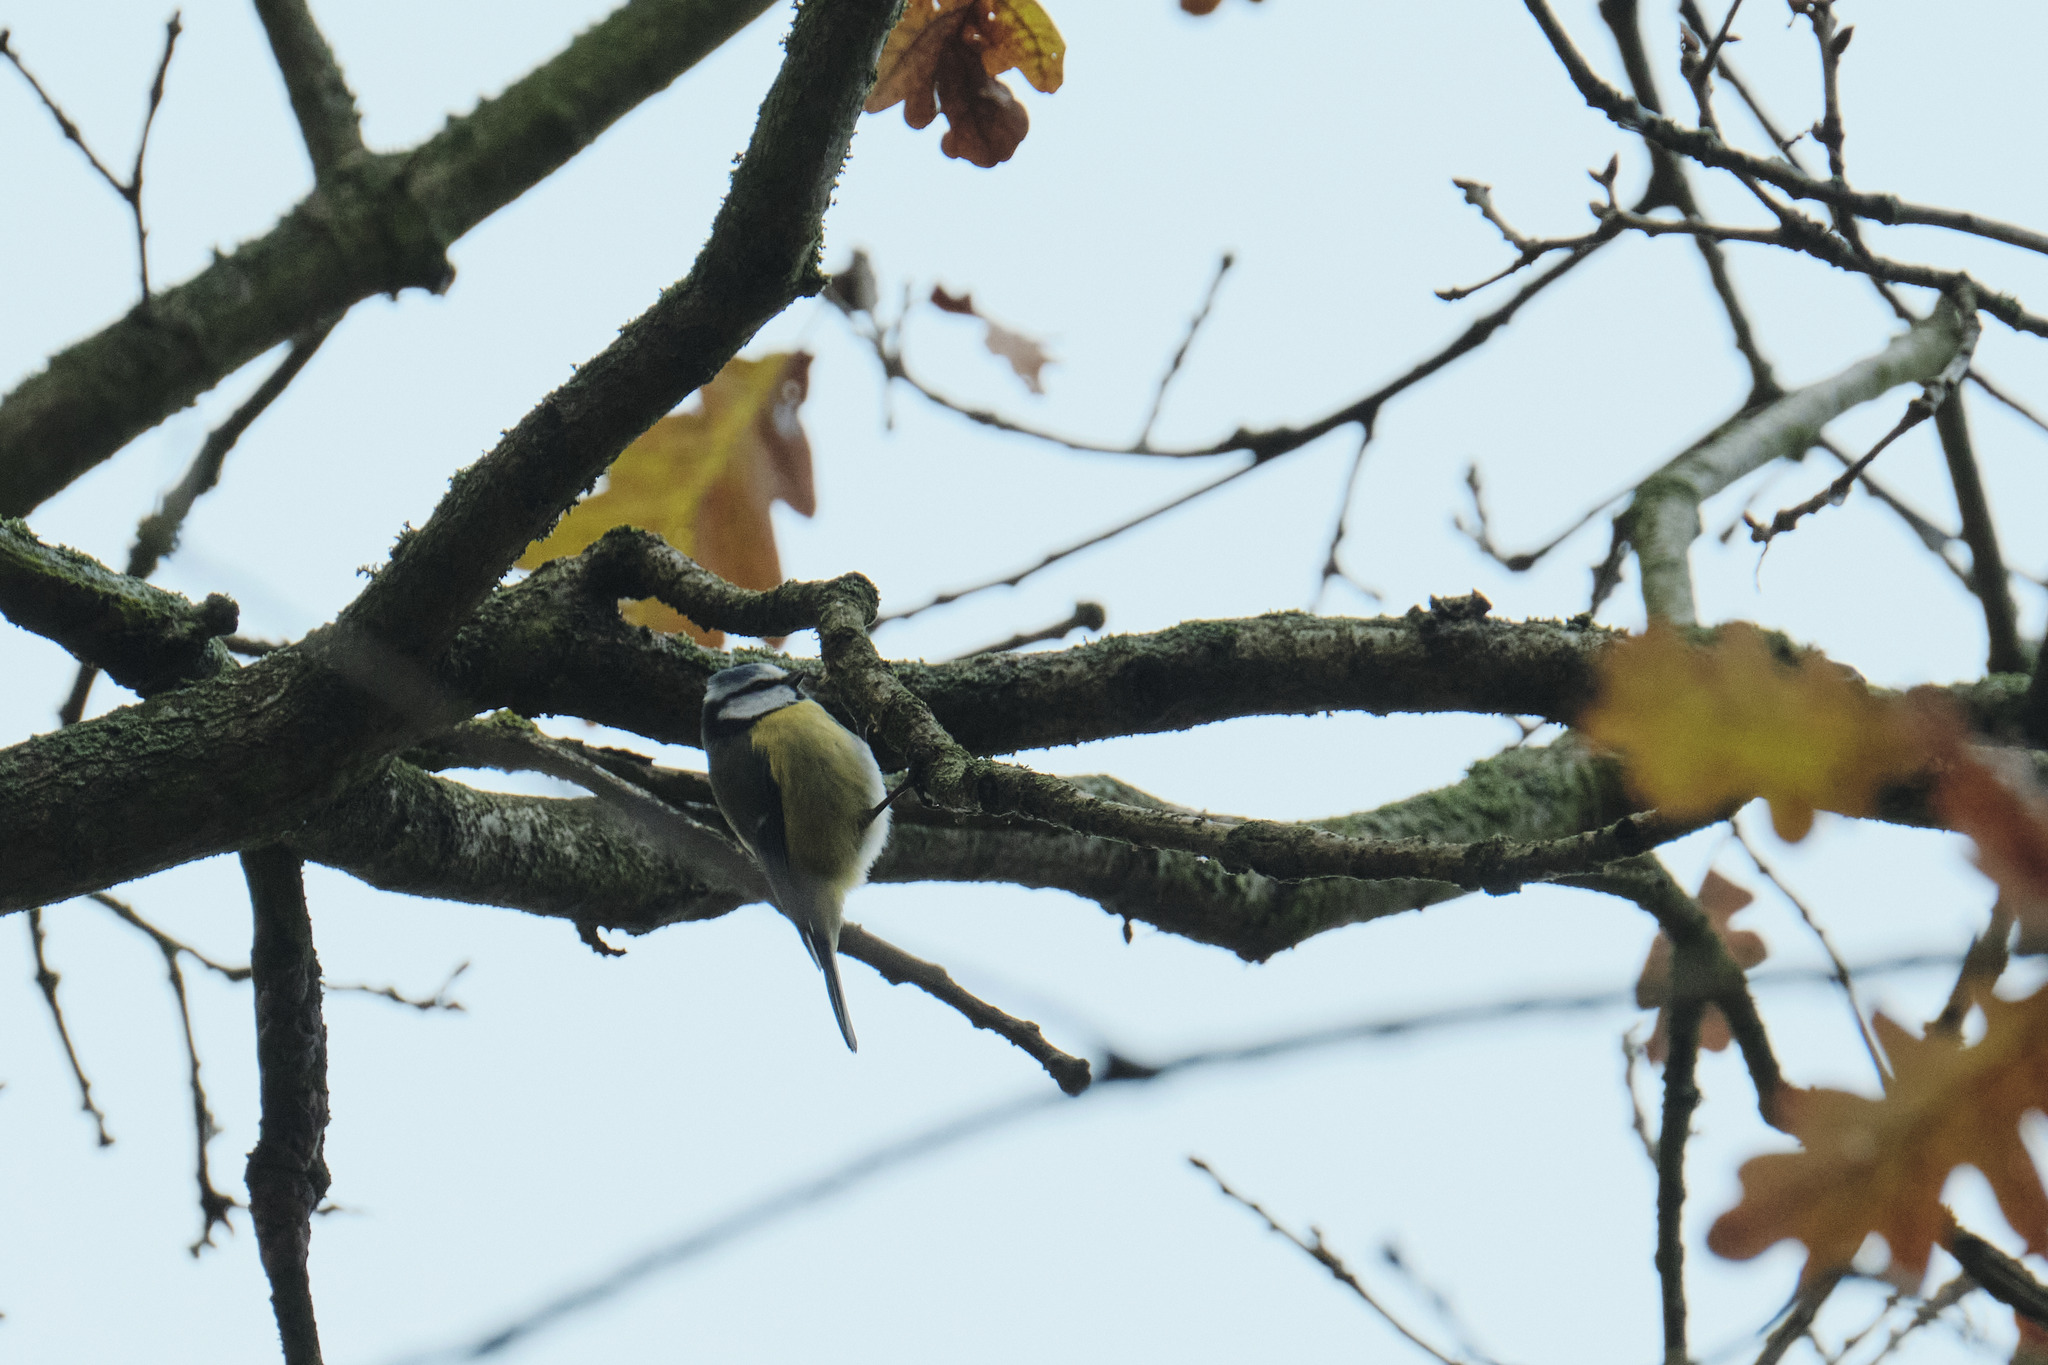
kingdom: Animalia
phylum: Chordata
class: Aves
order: Passeriformes
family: Paridae
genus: Cyanistes
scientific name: Cyanistes caeruleus
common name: Eurasian blue tit
